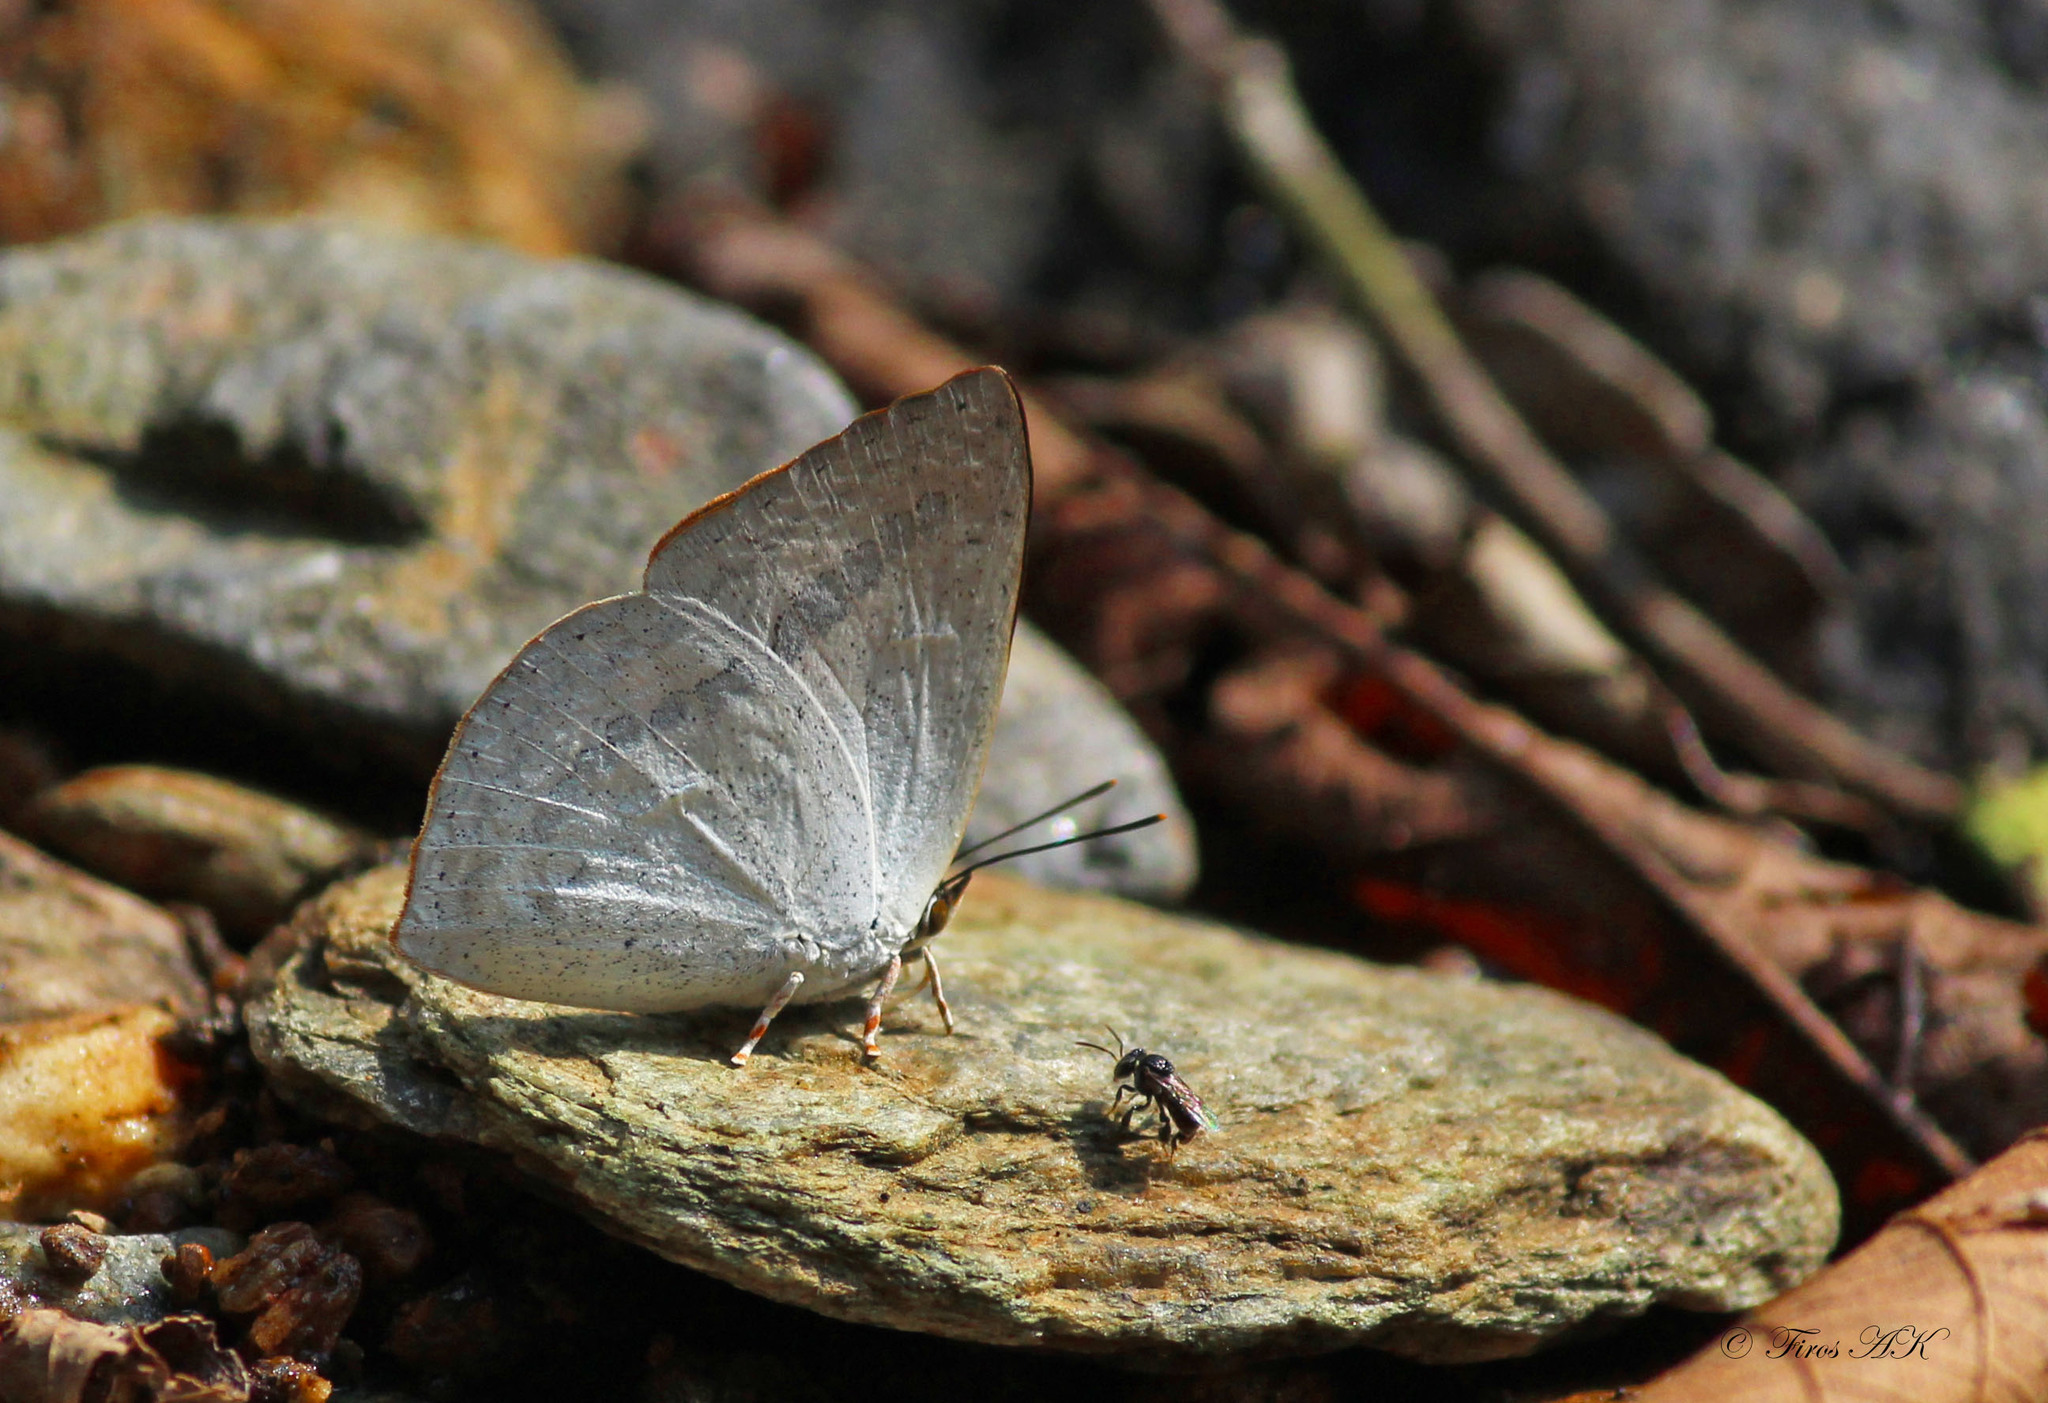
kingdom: Animalia
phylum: Arthropoda
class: Insecta
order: Lepidoptera
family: Lycaenidae
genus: Curetis
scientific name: Curetis siva
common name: Shiva sunbeam
